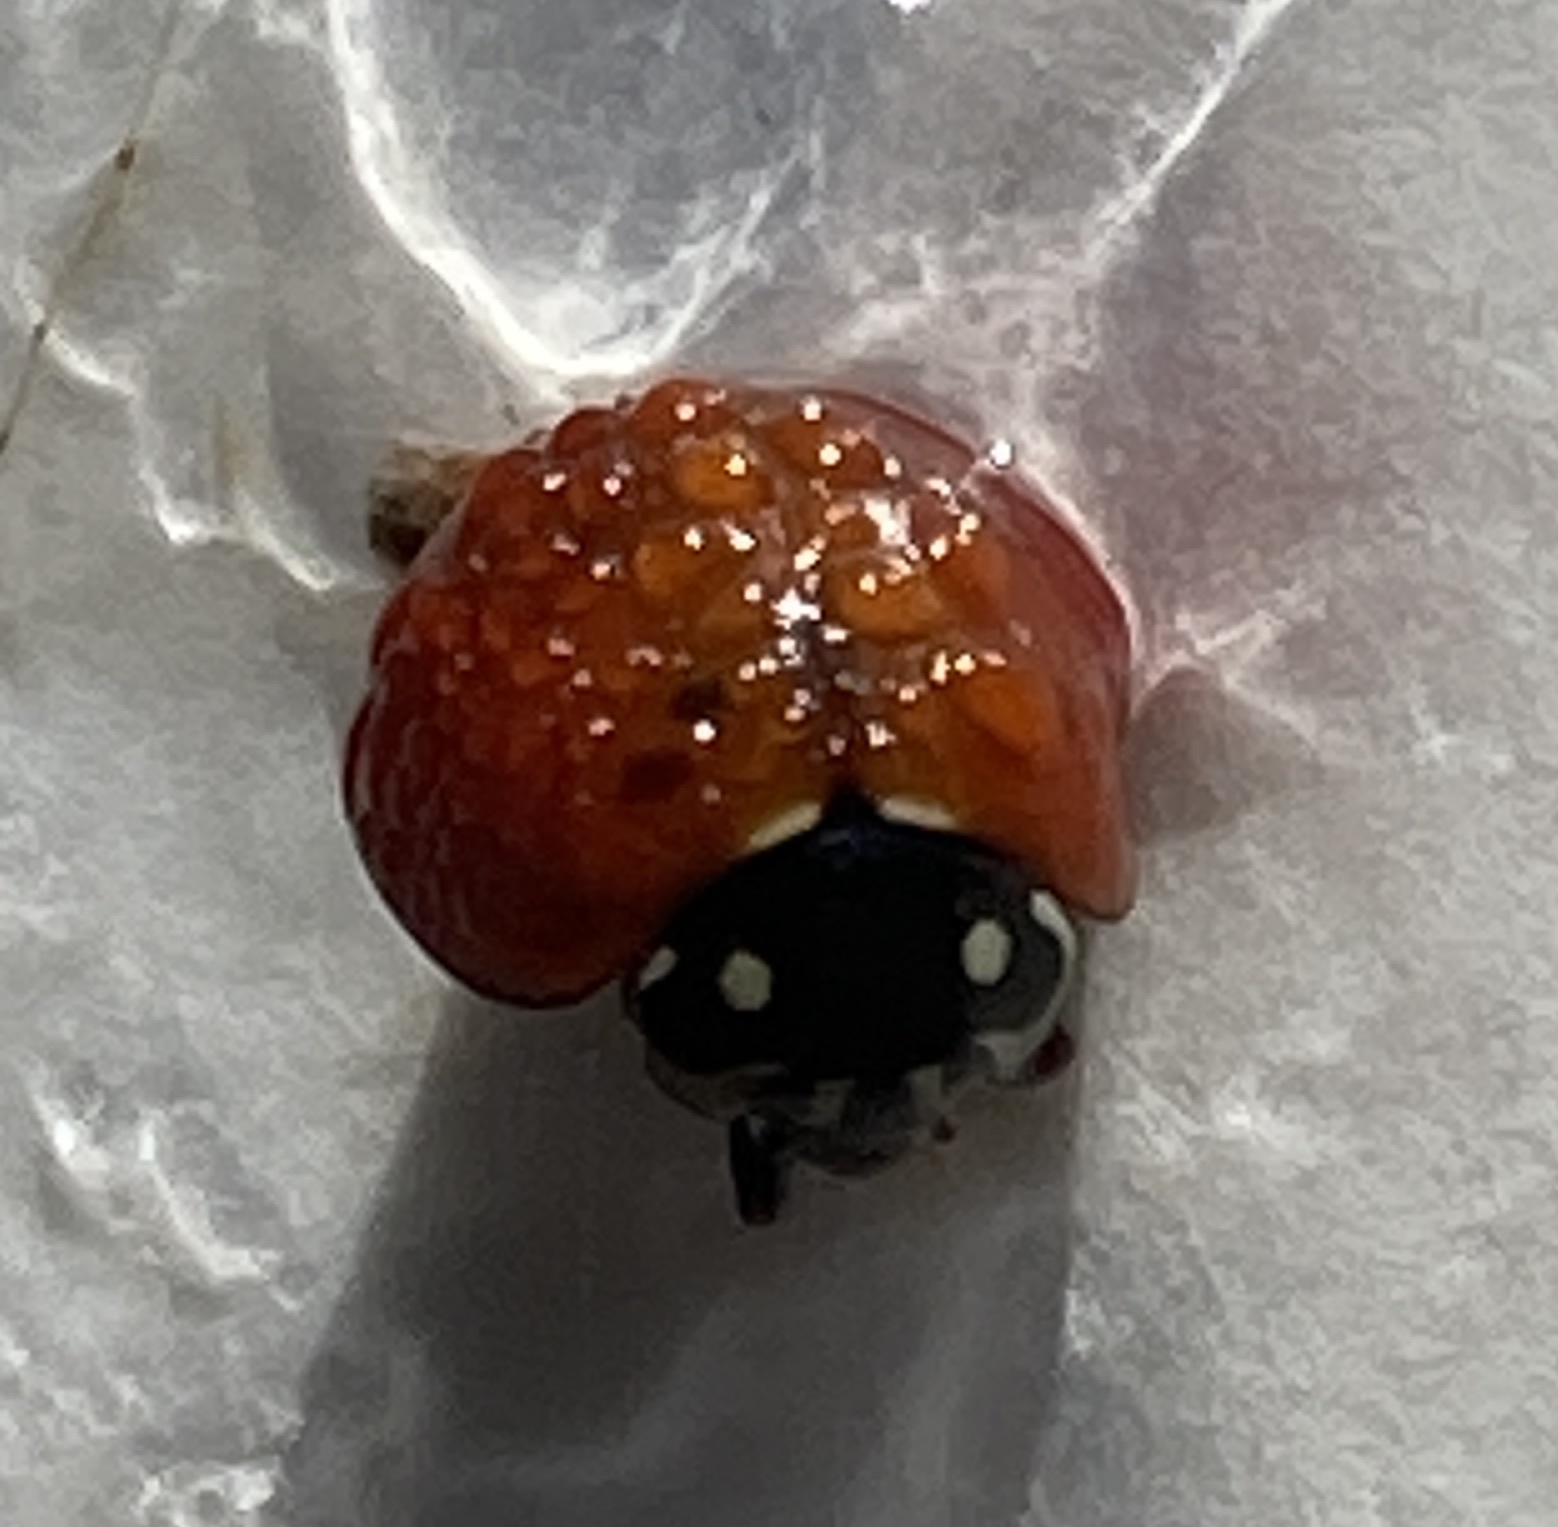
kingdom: Animalia
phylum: Arthropoda
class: Insecta
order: Coleoptera
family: Coccinellidae
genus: Cycloneda
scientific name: Cycloneda sanguinea
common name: Ladybird beetle
